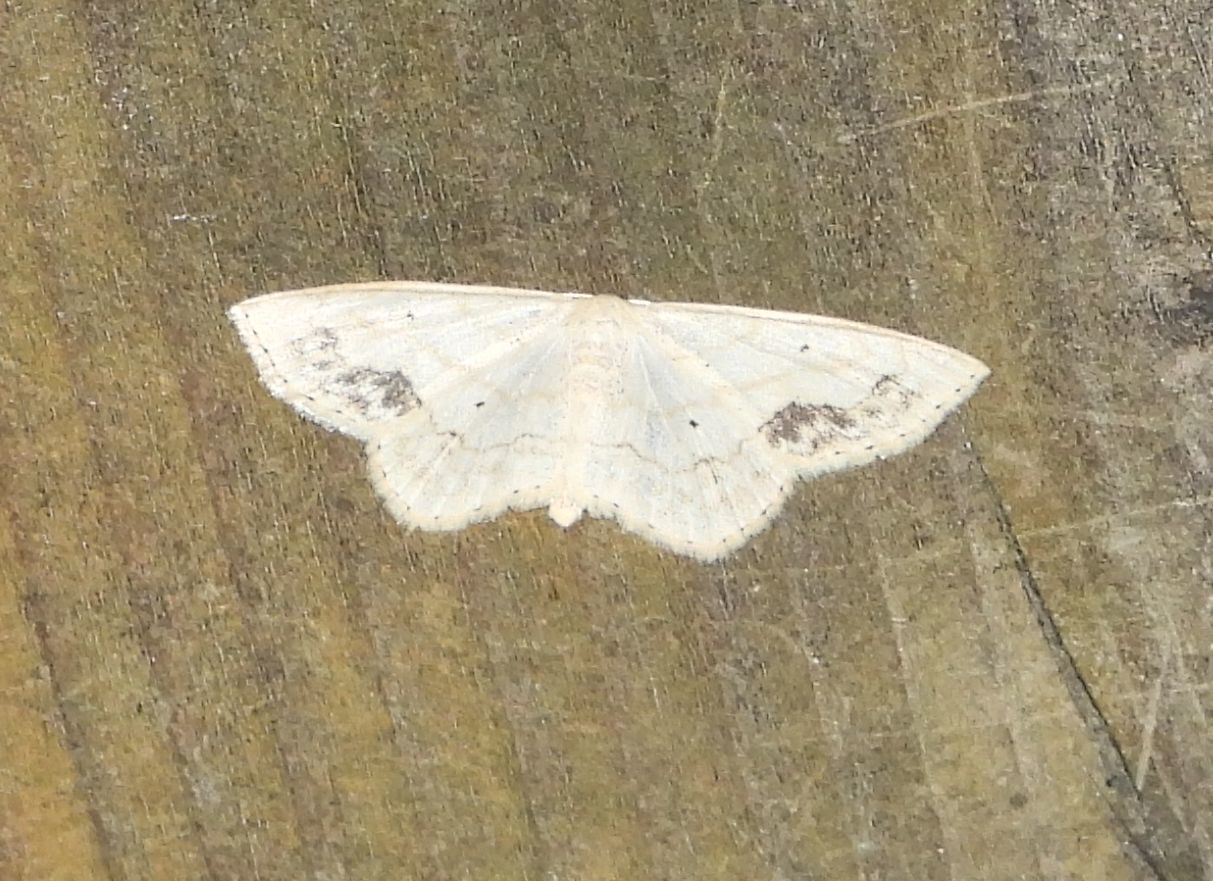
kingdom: Animalia
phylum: Arthropoda
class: Insecta
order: Lepidoptera
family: Geometridae
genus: Scopula
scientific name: Scopula limboundata
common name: Large lace border
